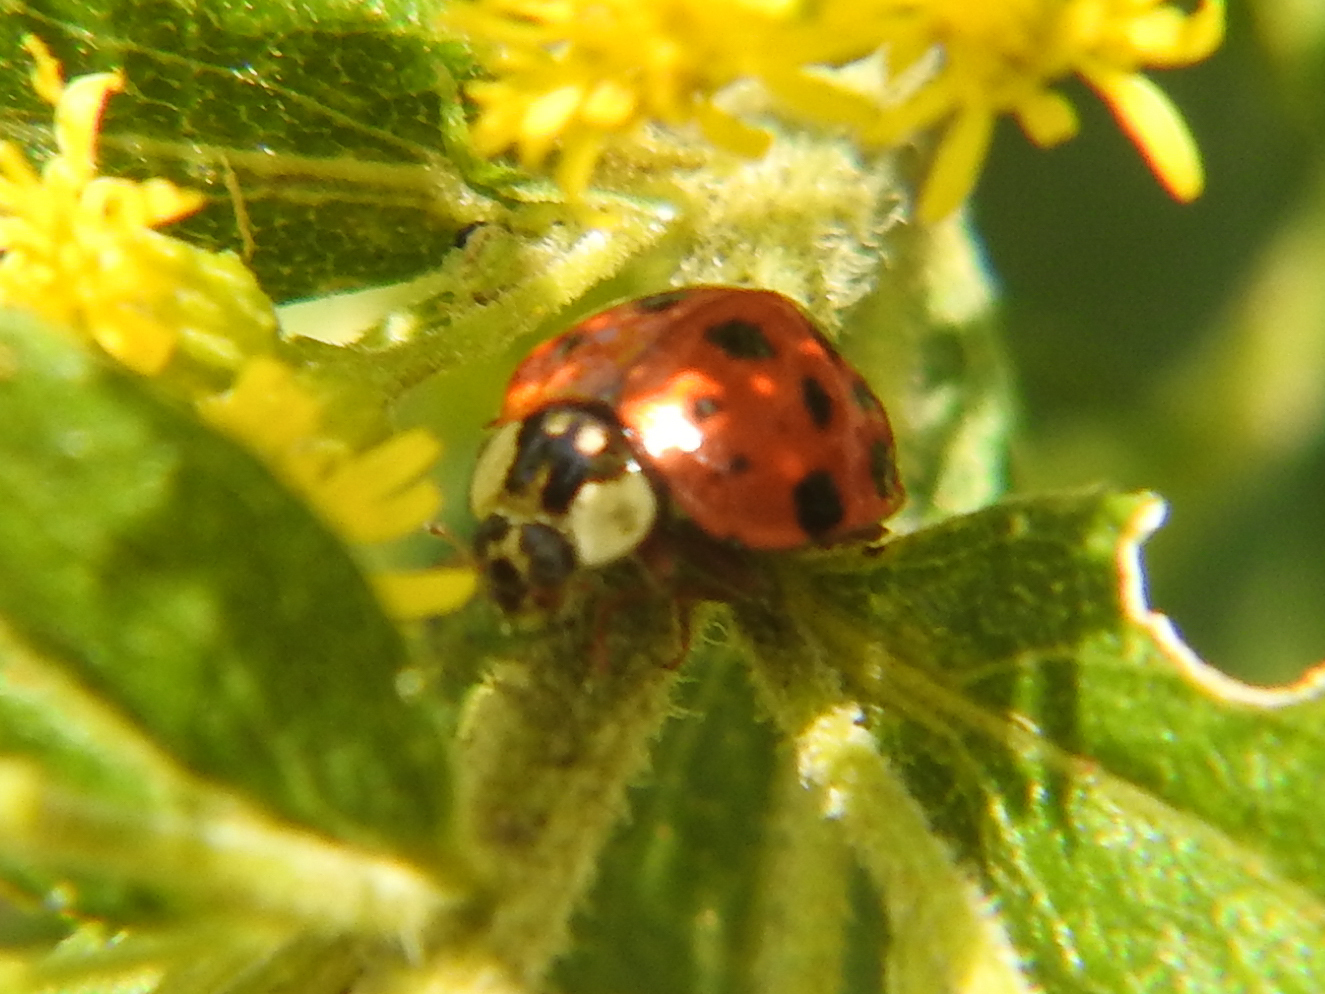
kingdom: Animalia
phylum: Arthropoda
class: Insecta
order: Coleoptera
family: Coccinellidae
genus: Harmonia
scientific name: Harmonia axyridis
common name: Harlequin ladybird
